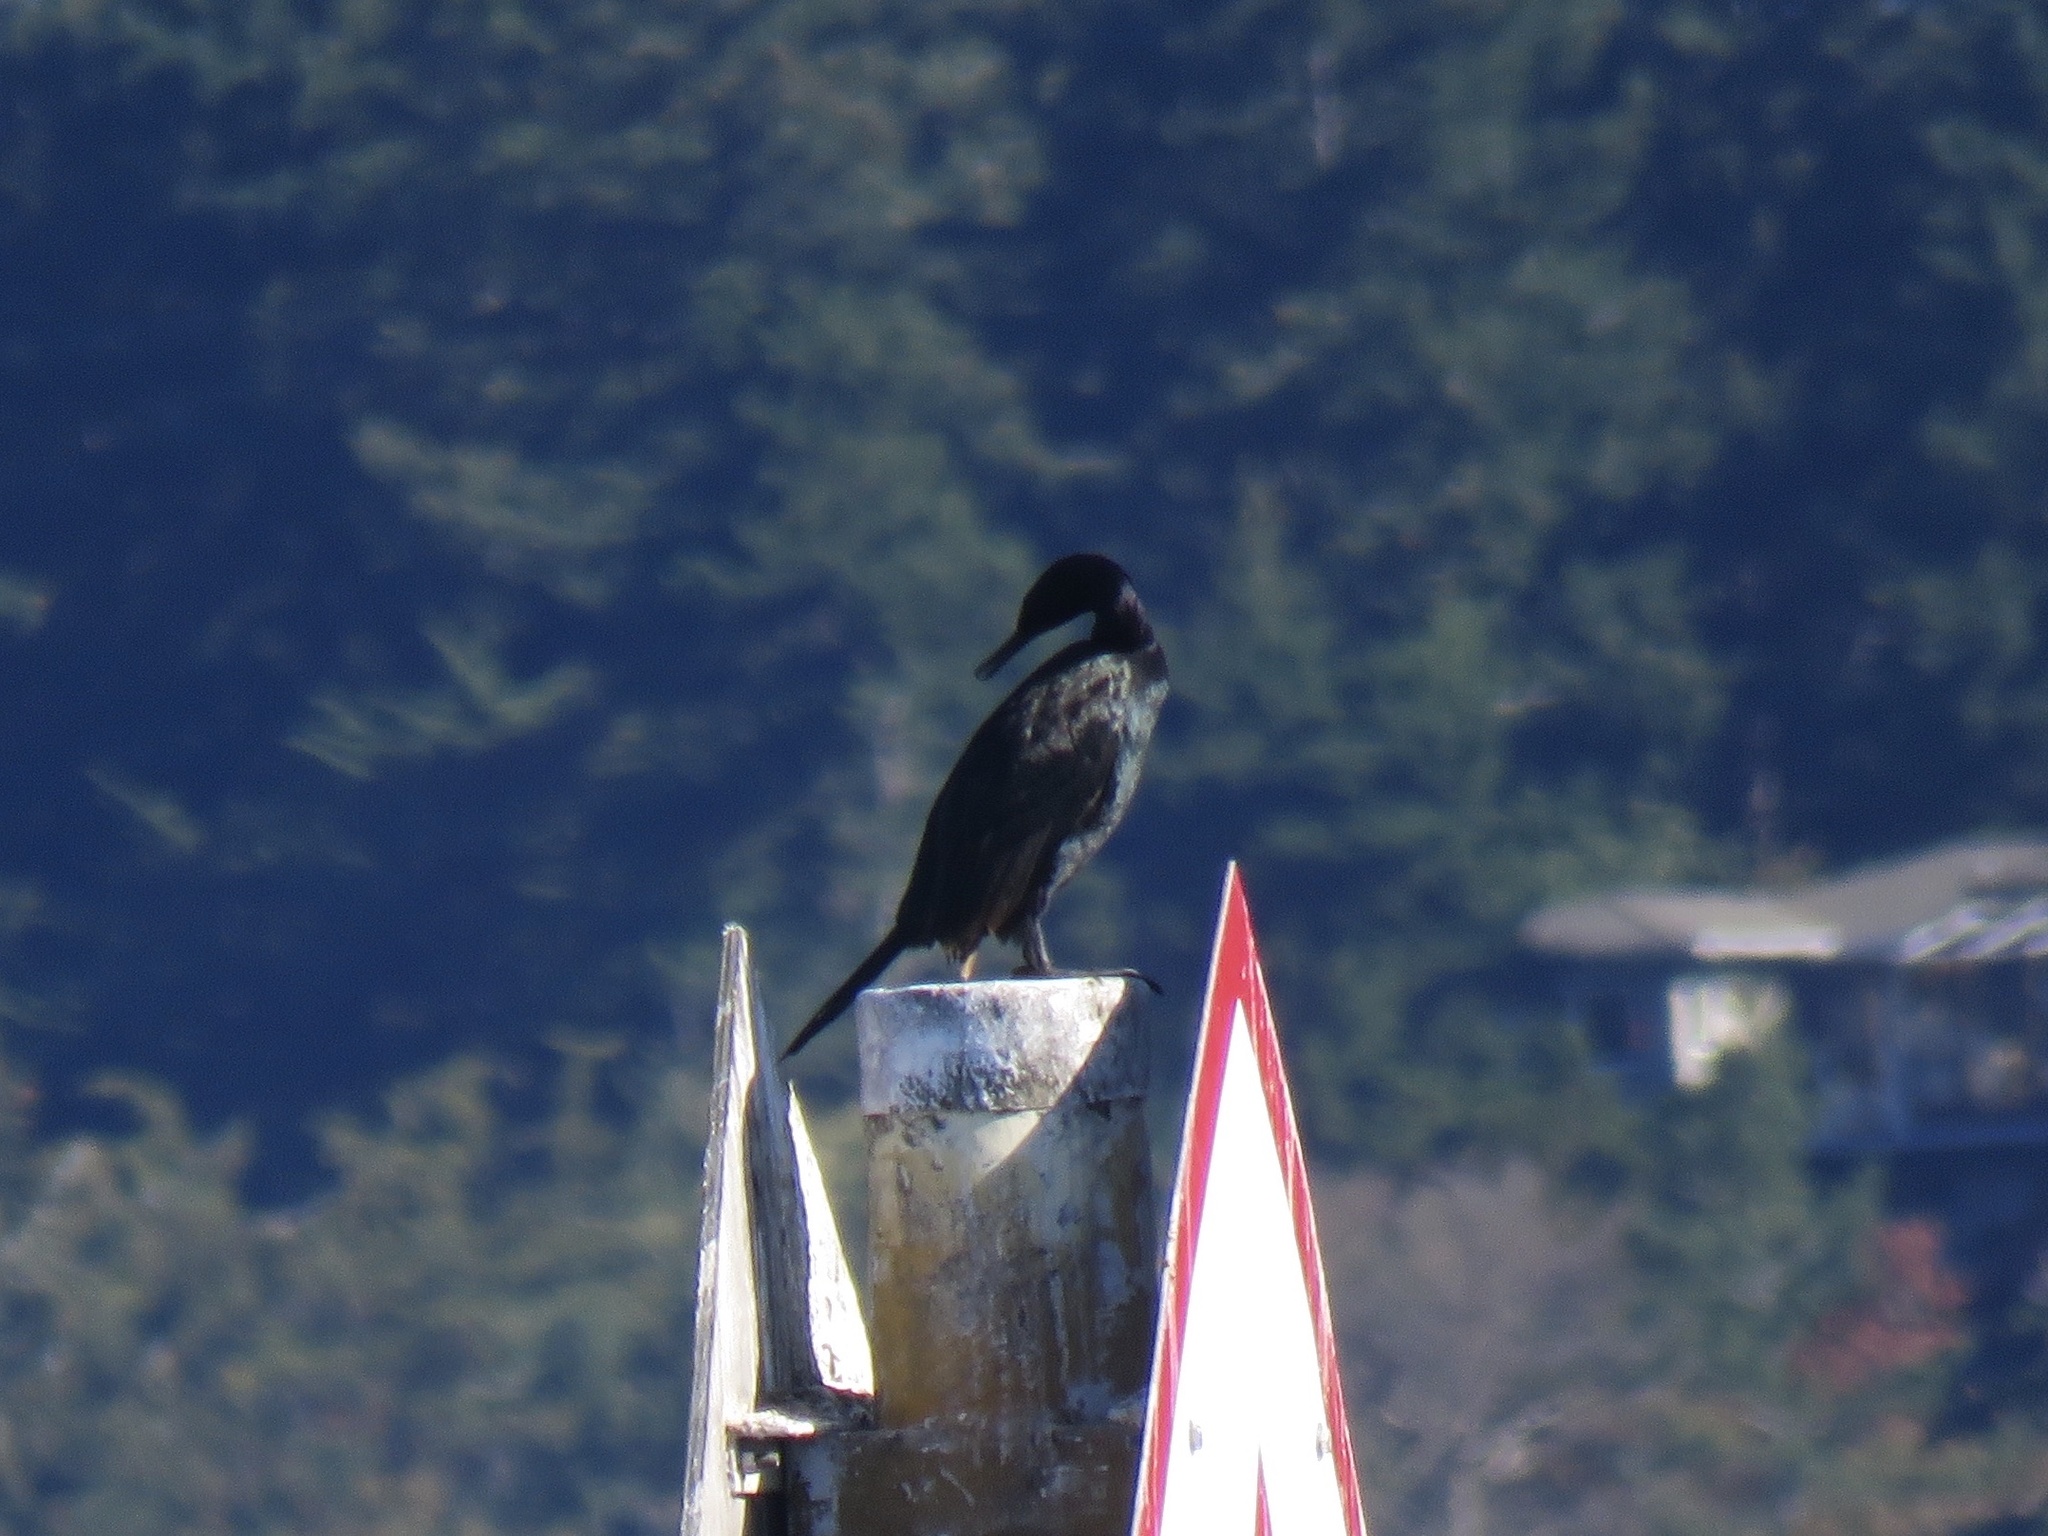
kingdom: Animalia
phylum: Chordata
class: Aves
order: Suliformes
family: Phalacrocoracidae
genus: Phalacrocorax
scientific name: Phalacrocorax pelagicus
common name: Pelagic cormorant
